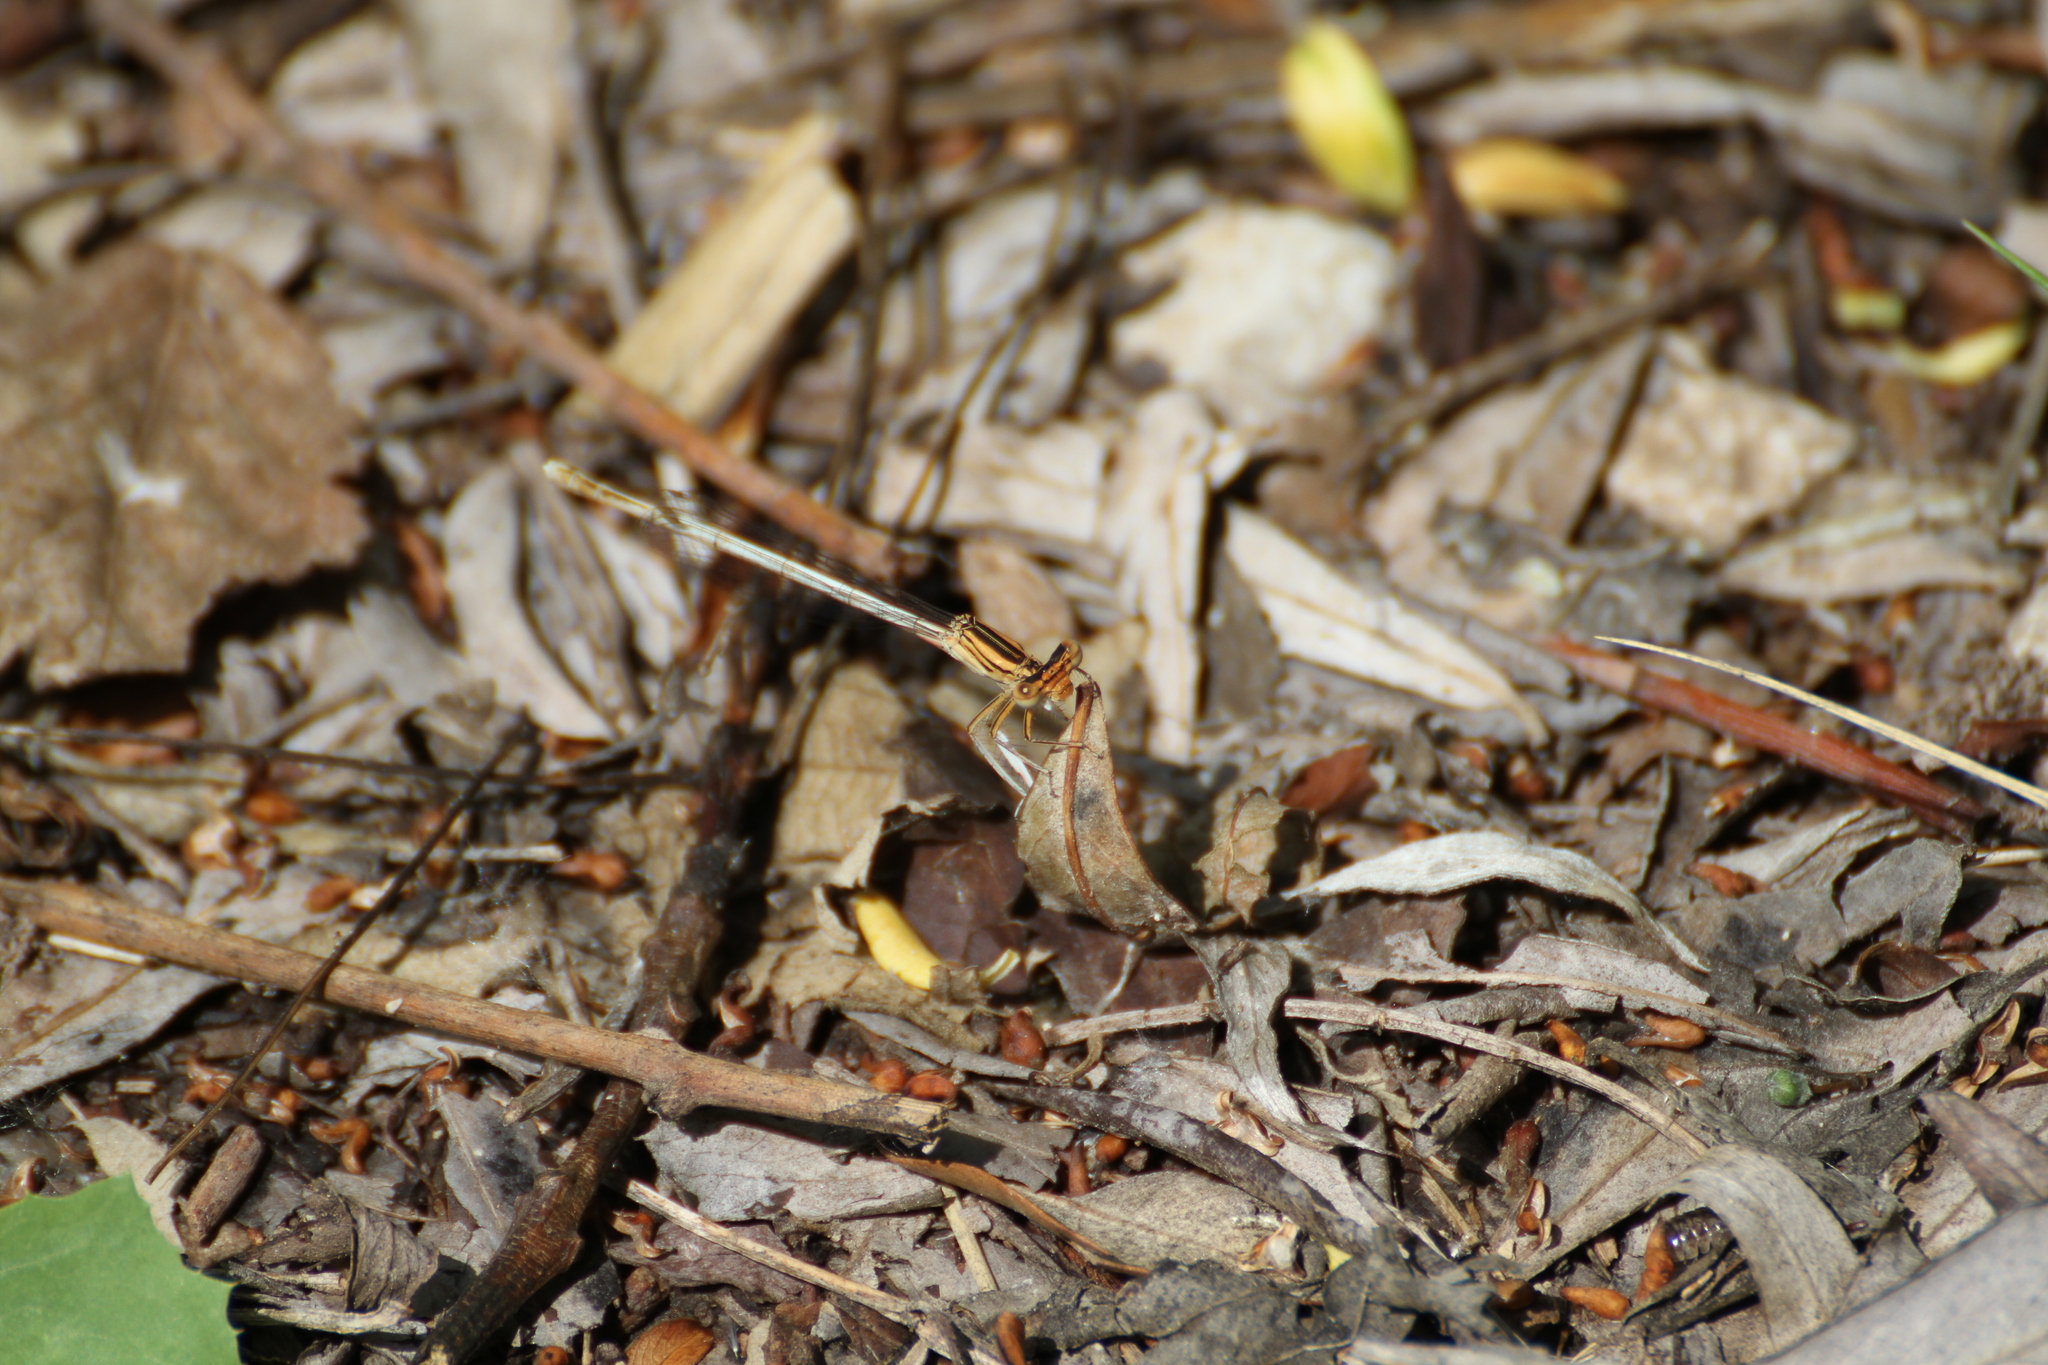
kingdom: Animalia
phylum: Arthropoda
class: Insecta
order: Odonata
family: Platycnemididae
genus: Platycnemis
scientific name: Platycnemis latipes
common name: White featherleg
